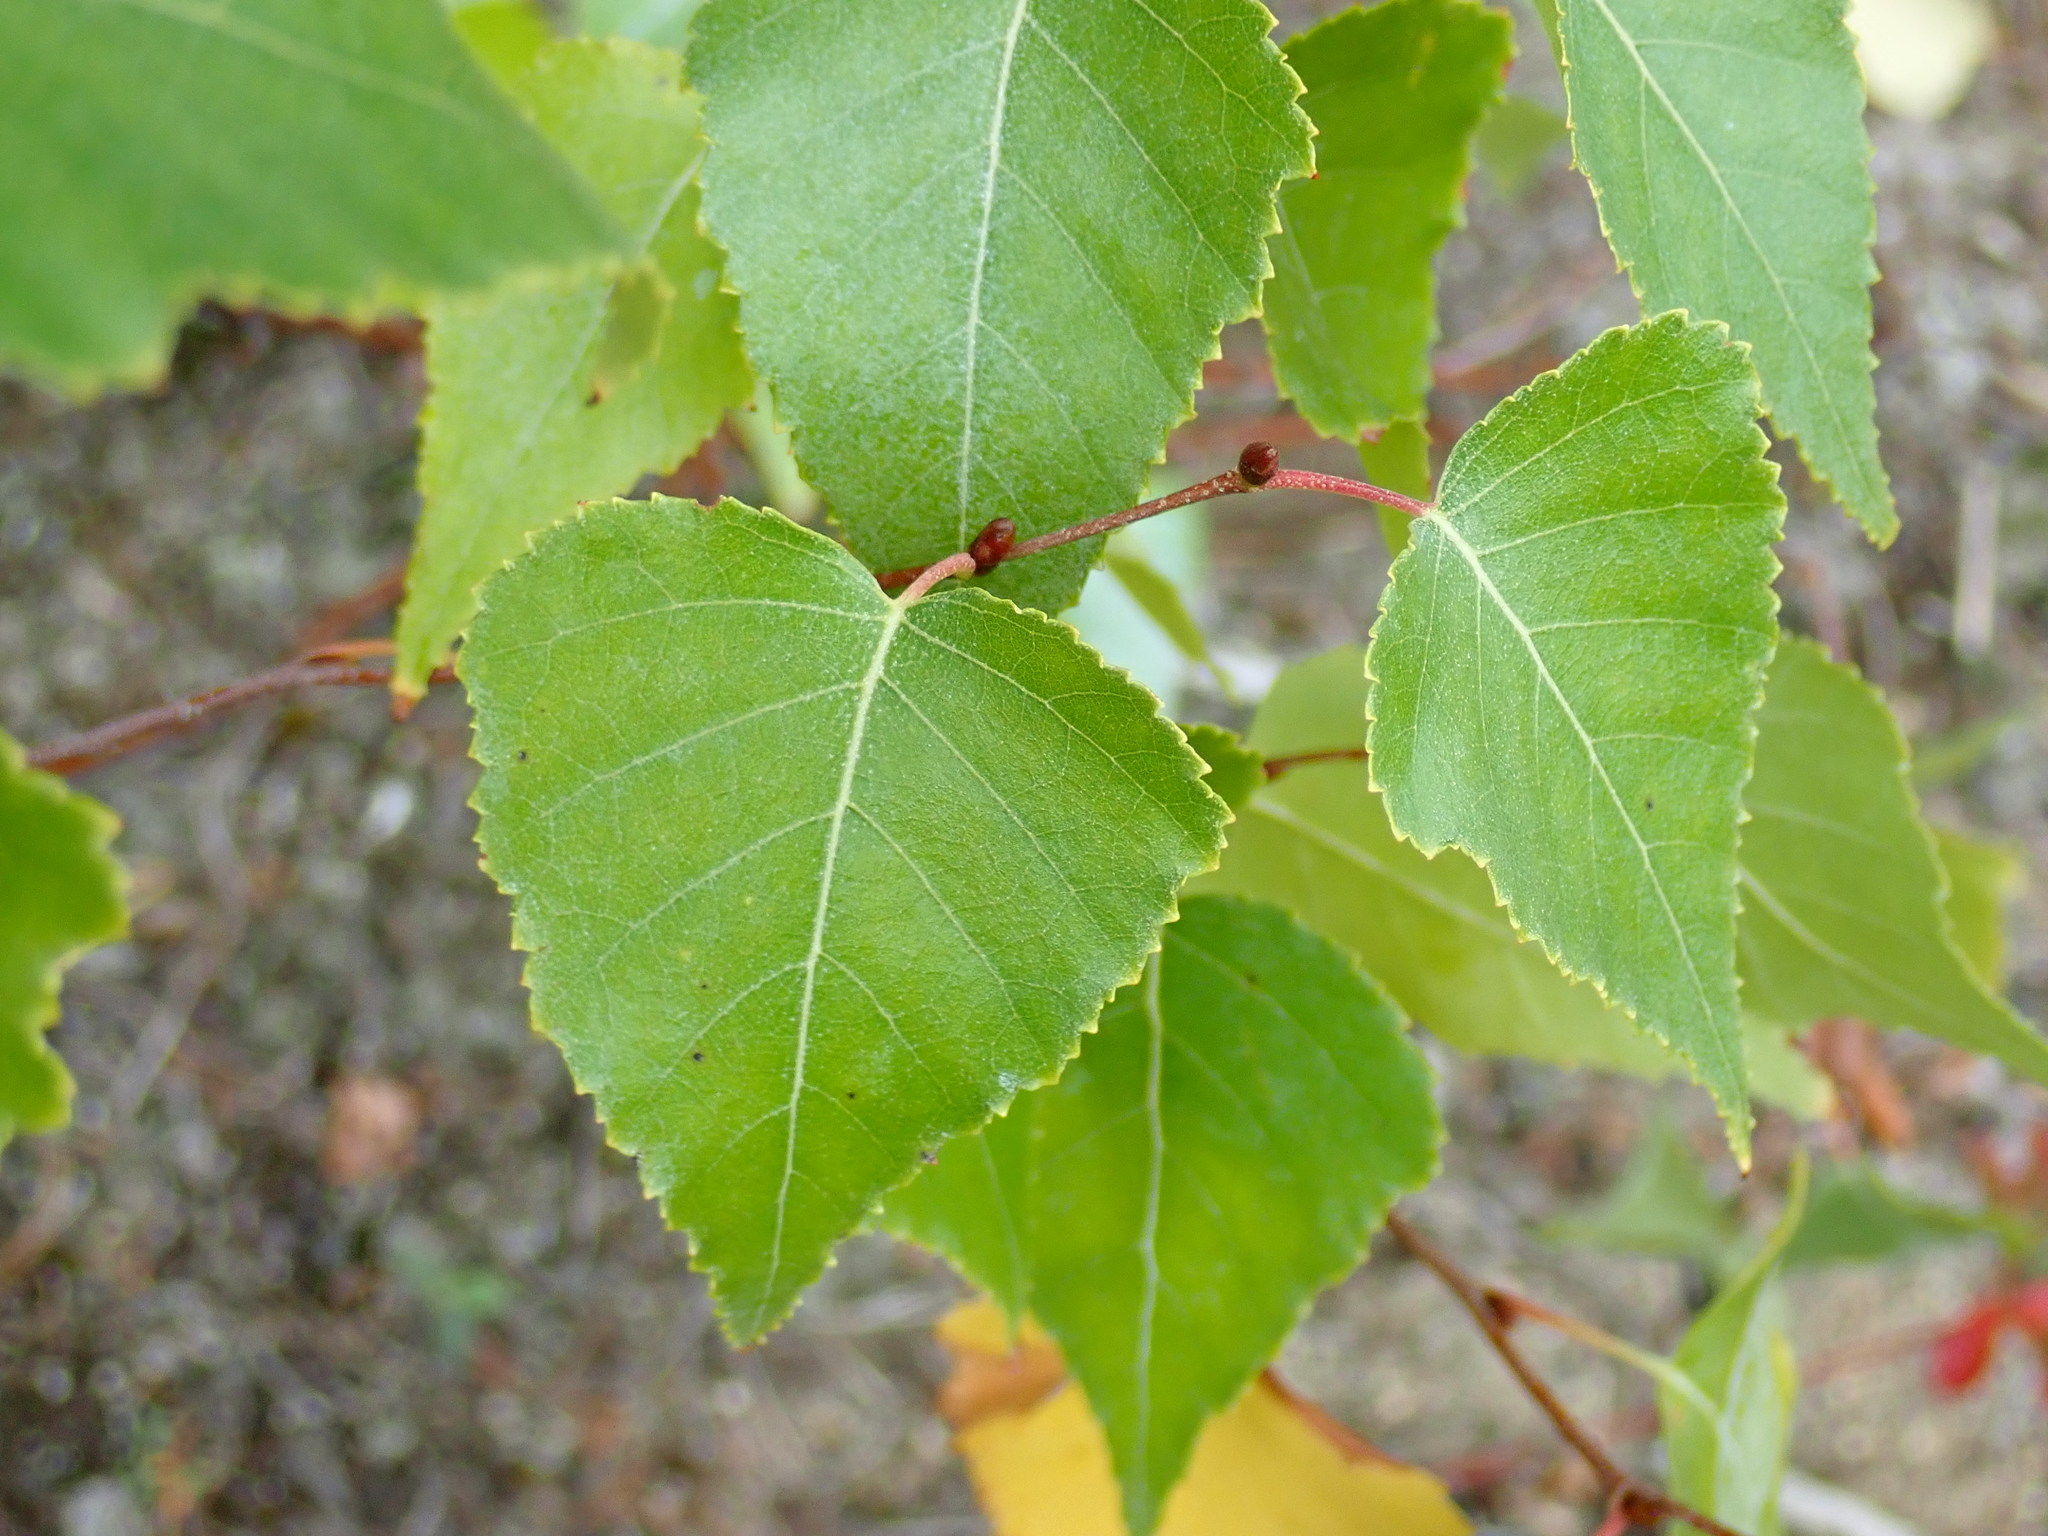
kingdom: Plantae
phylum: Tracheophyta
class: Magnoliopsida
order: Fagales
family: Betulaceae
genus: Betula
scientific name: Betula populifolia
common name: Fire birch
